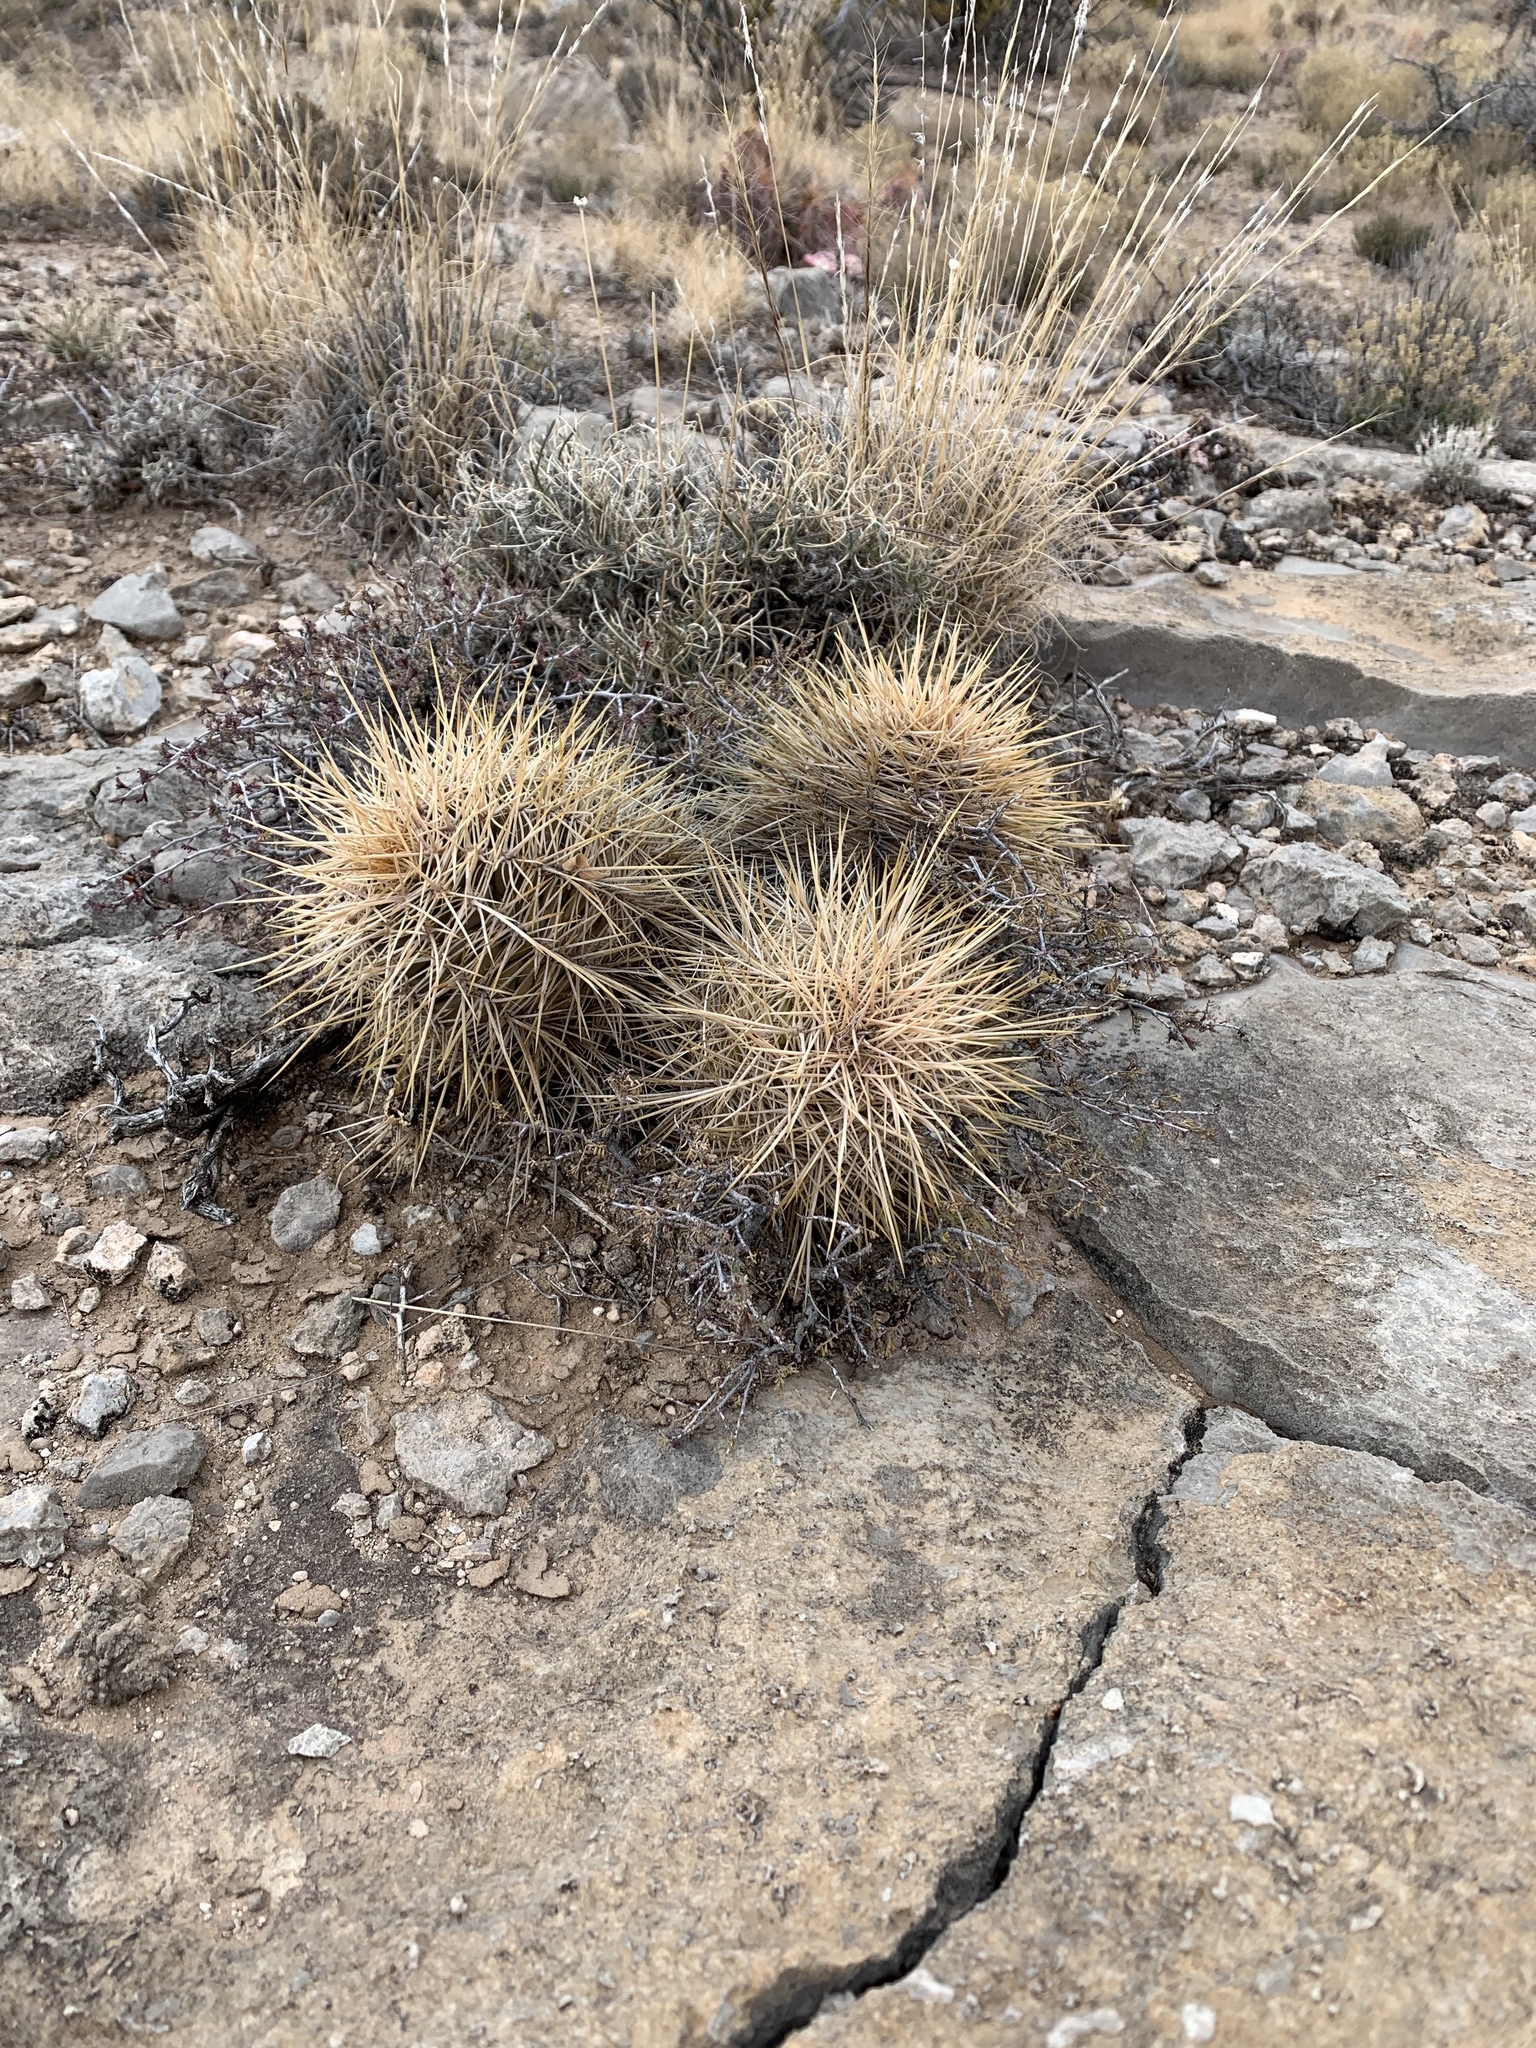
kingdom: Plantae
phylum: Tracheophyta
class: Magnoliopsida
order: Caryophyllales
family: Cactaceae
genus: Echinocereus
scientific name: Echinocereus coccineus
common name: Scarlet hedgehog cactus
